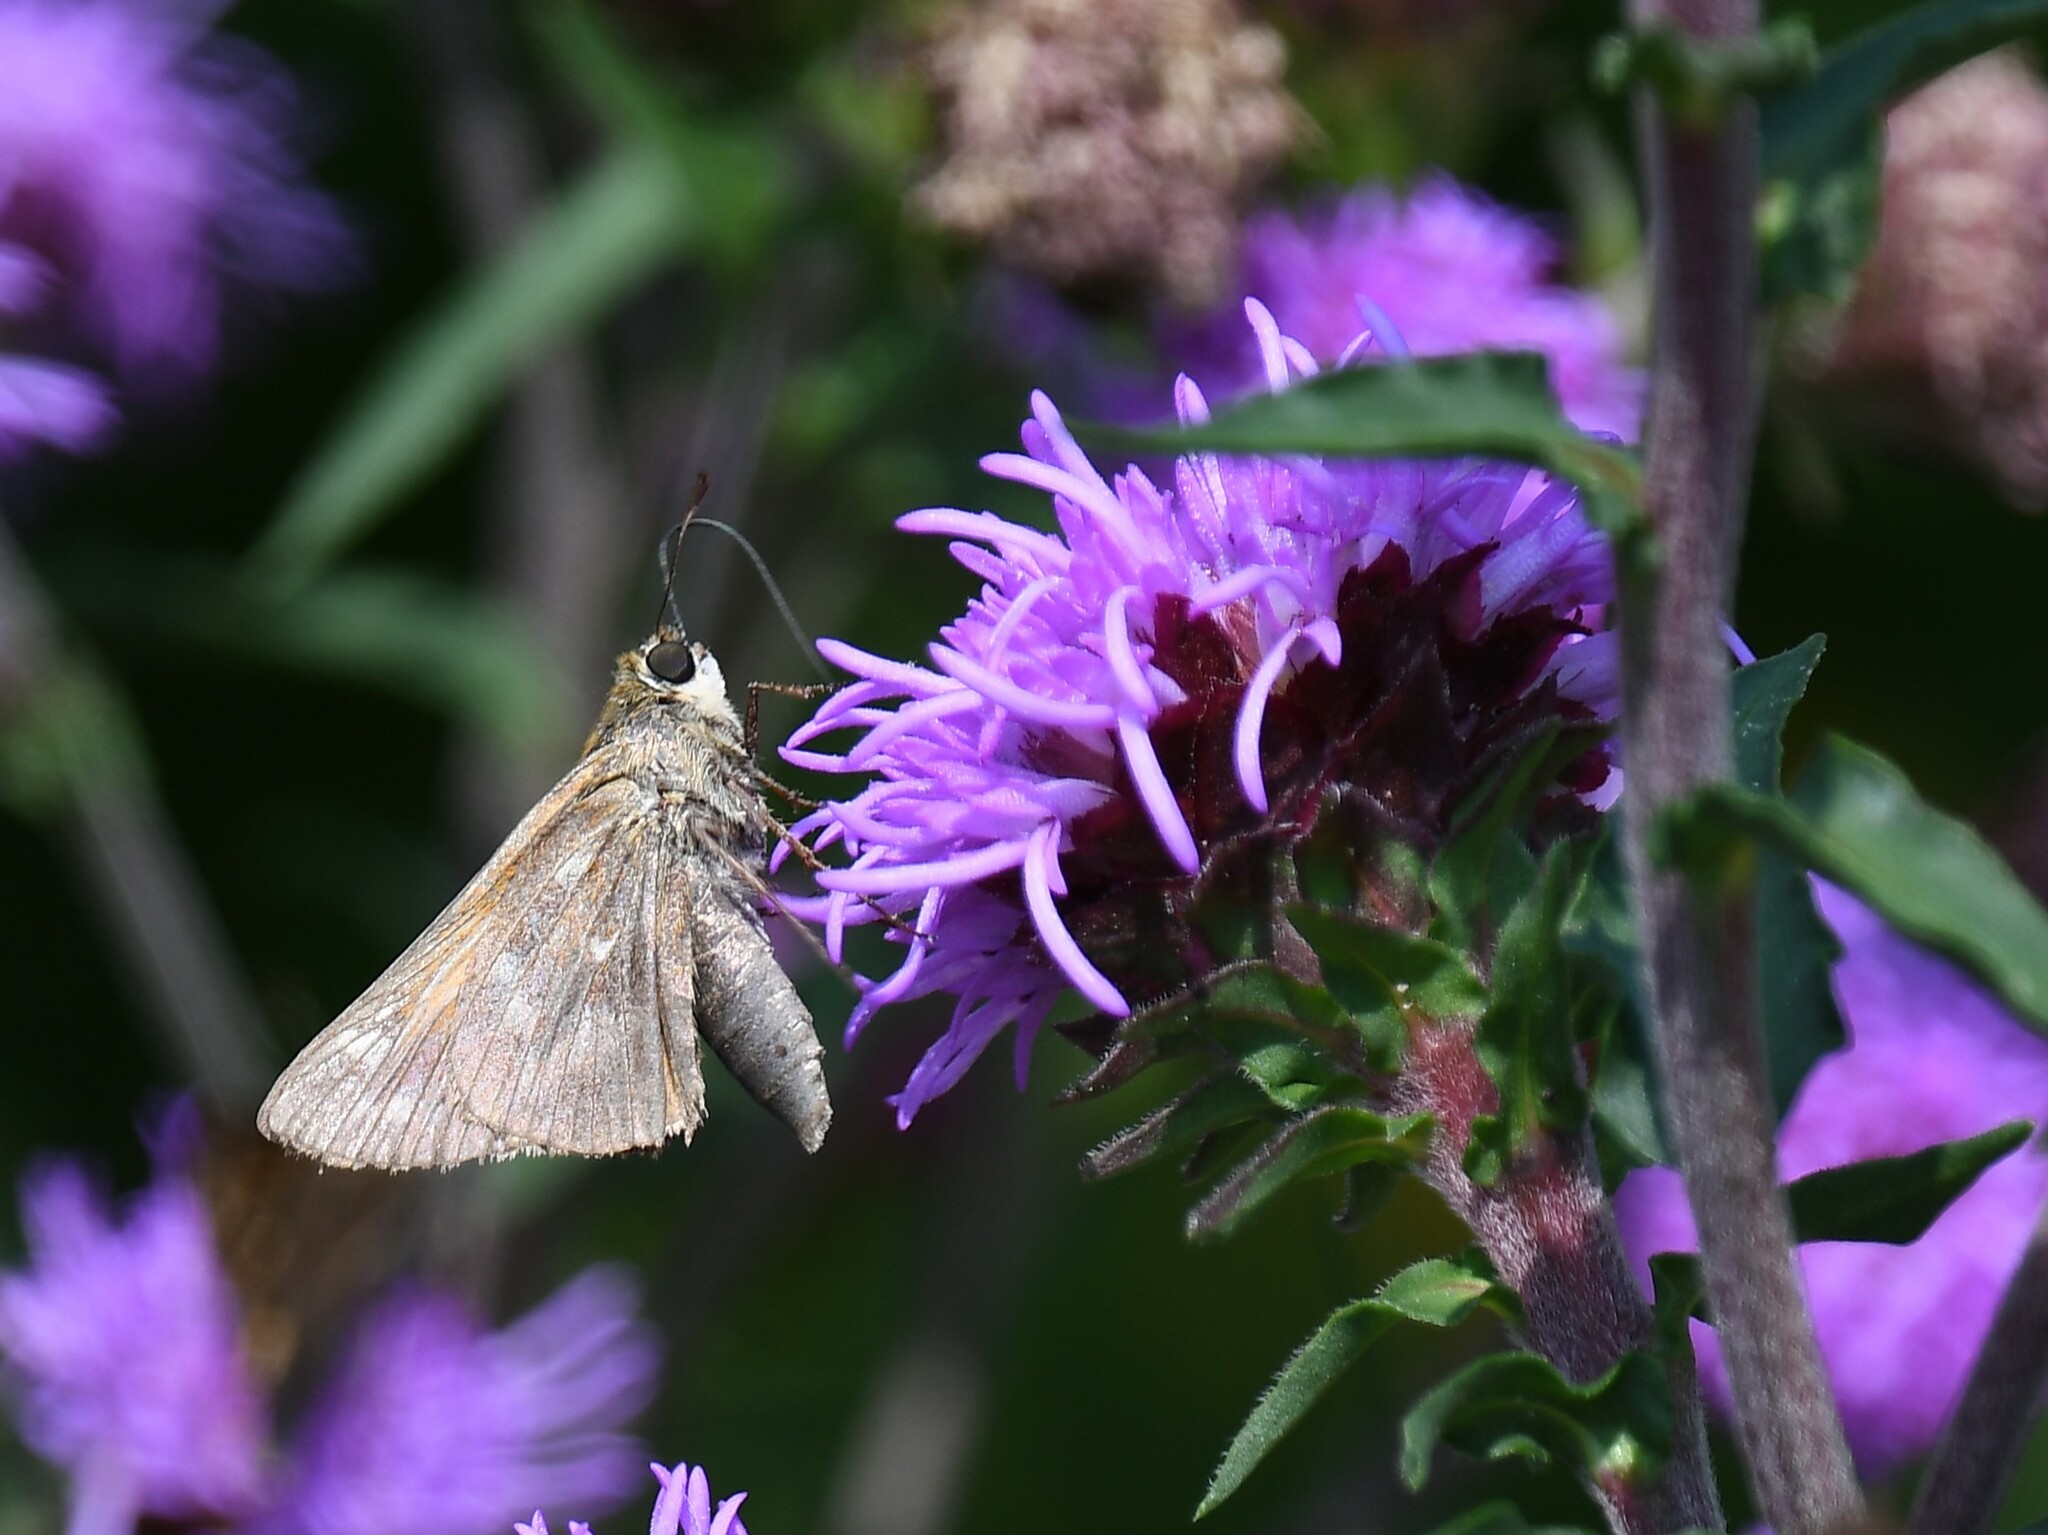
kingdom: Animalia
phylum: Arthropoda
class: Insecta
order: Lepidoptera
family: Hesperiidae
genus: Atalopedes
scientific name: Atalopedes
